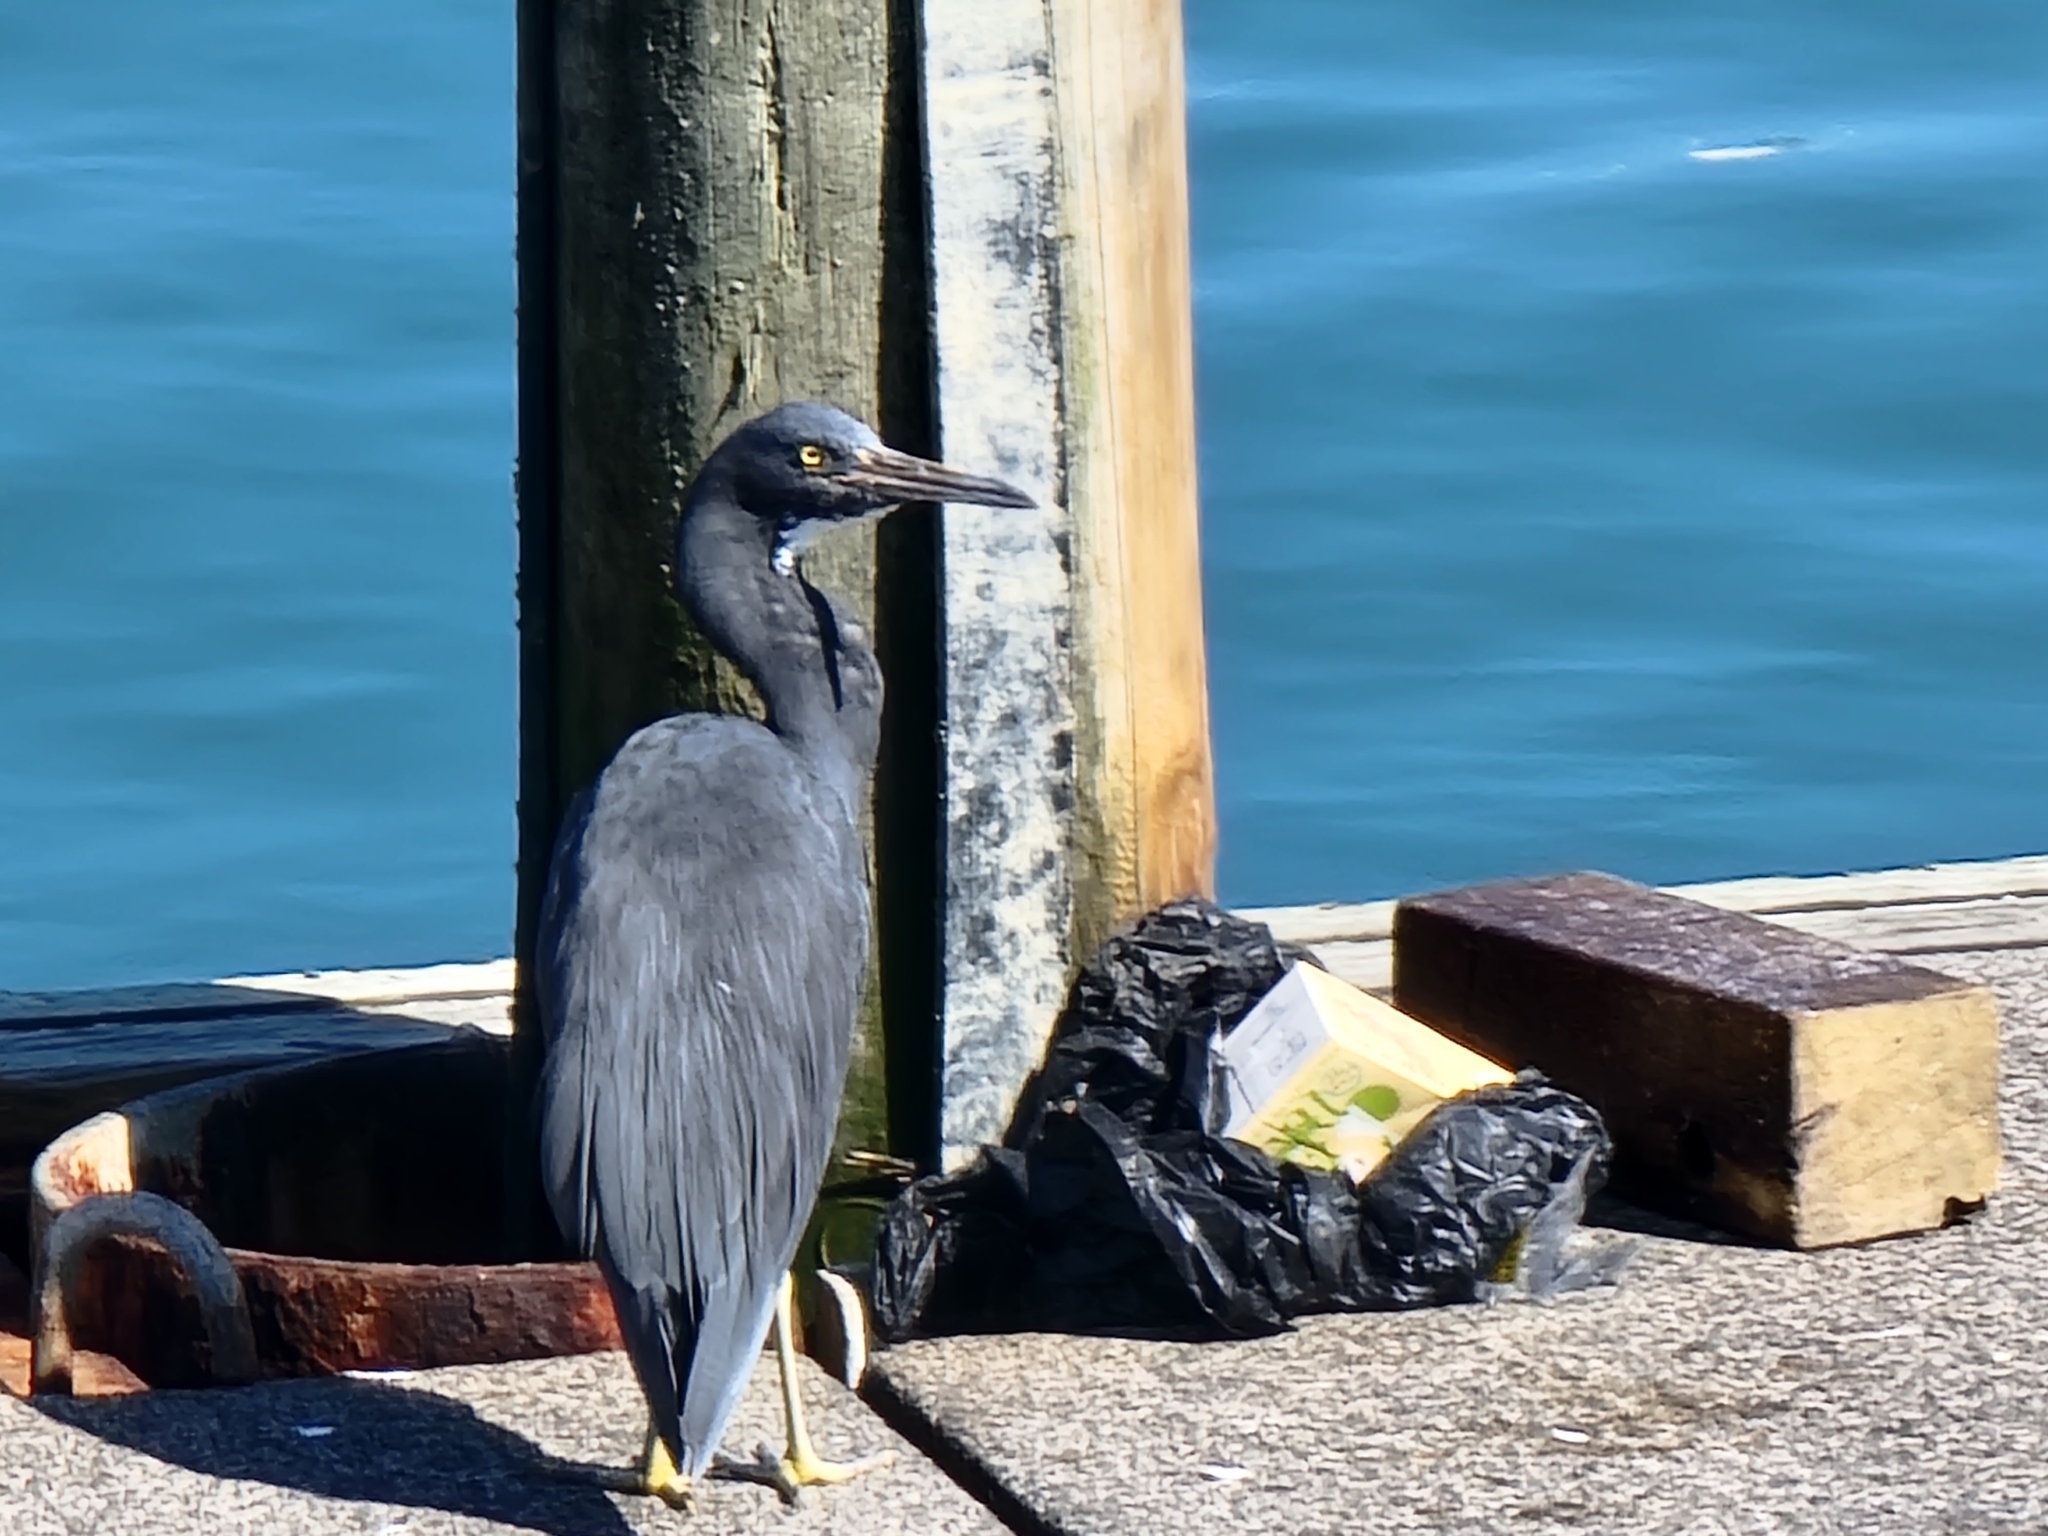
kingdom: Animalia
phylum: Chordata
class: Aves
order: Pelecaniformes
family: Ardeidae
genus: Egretta
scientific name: Egretta sacra
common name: Pacific reef heron
